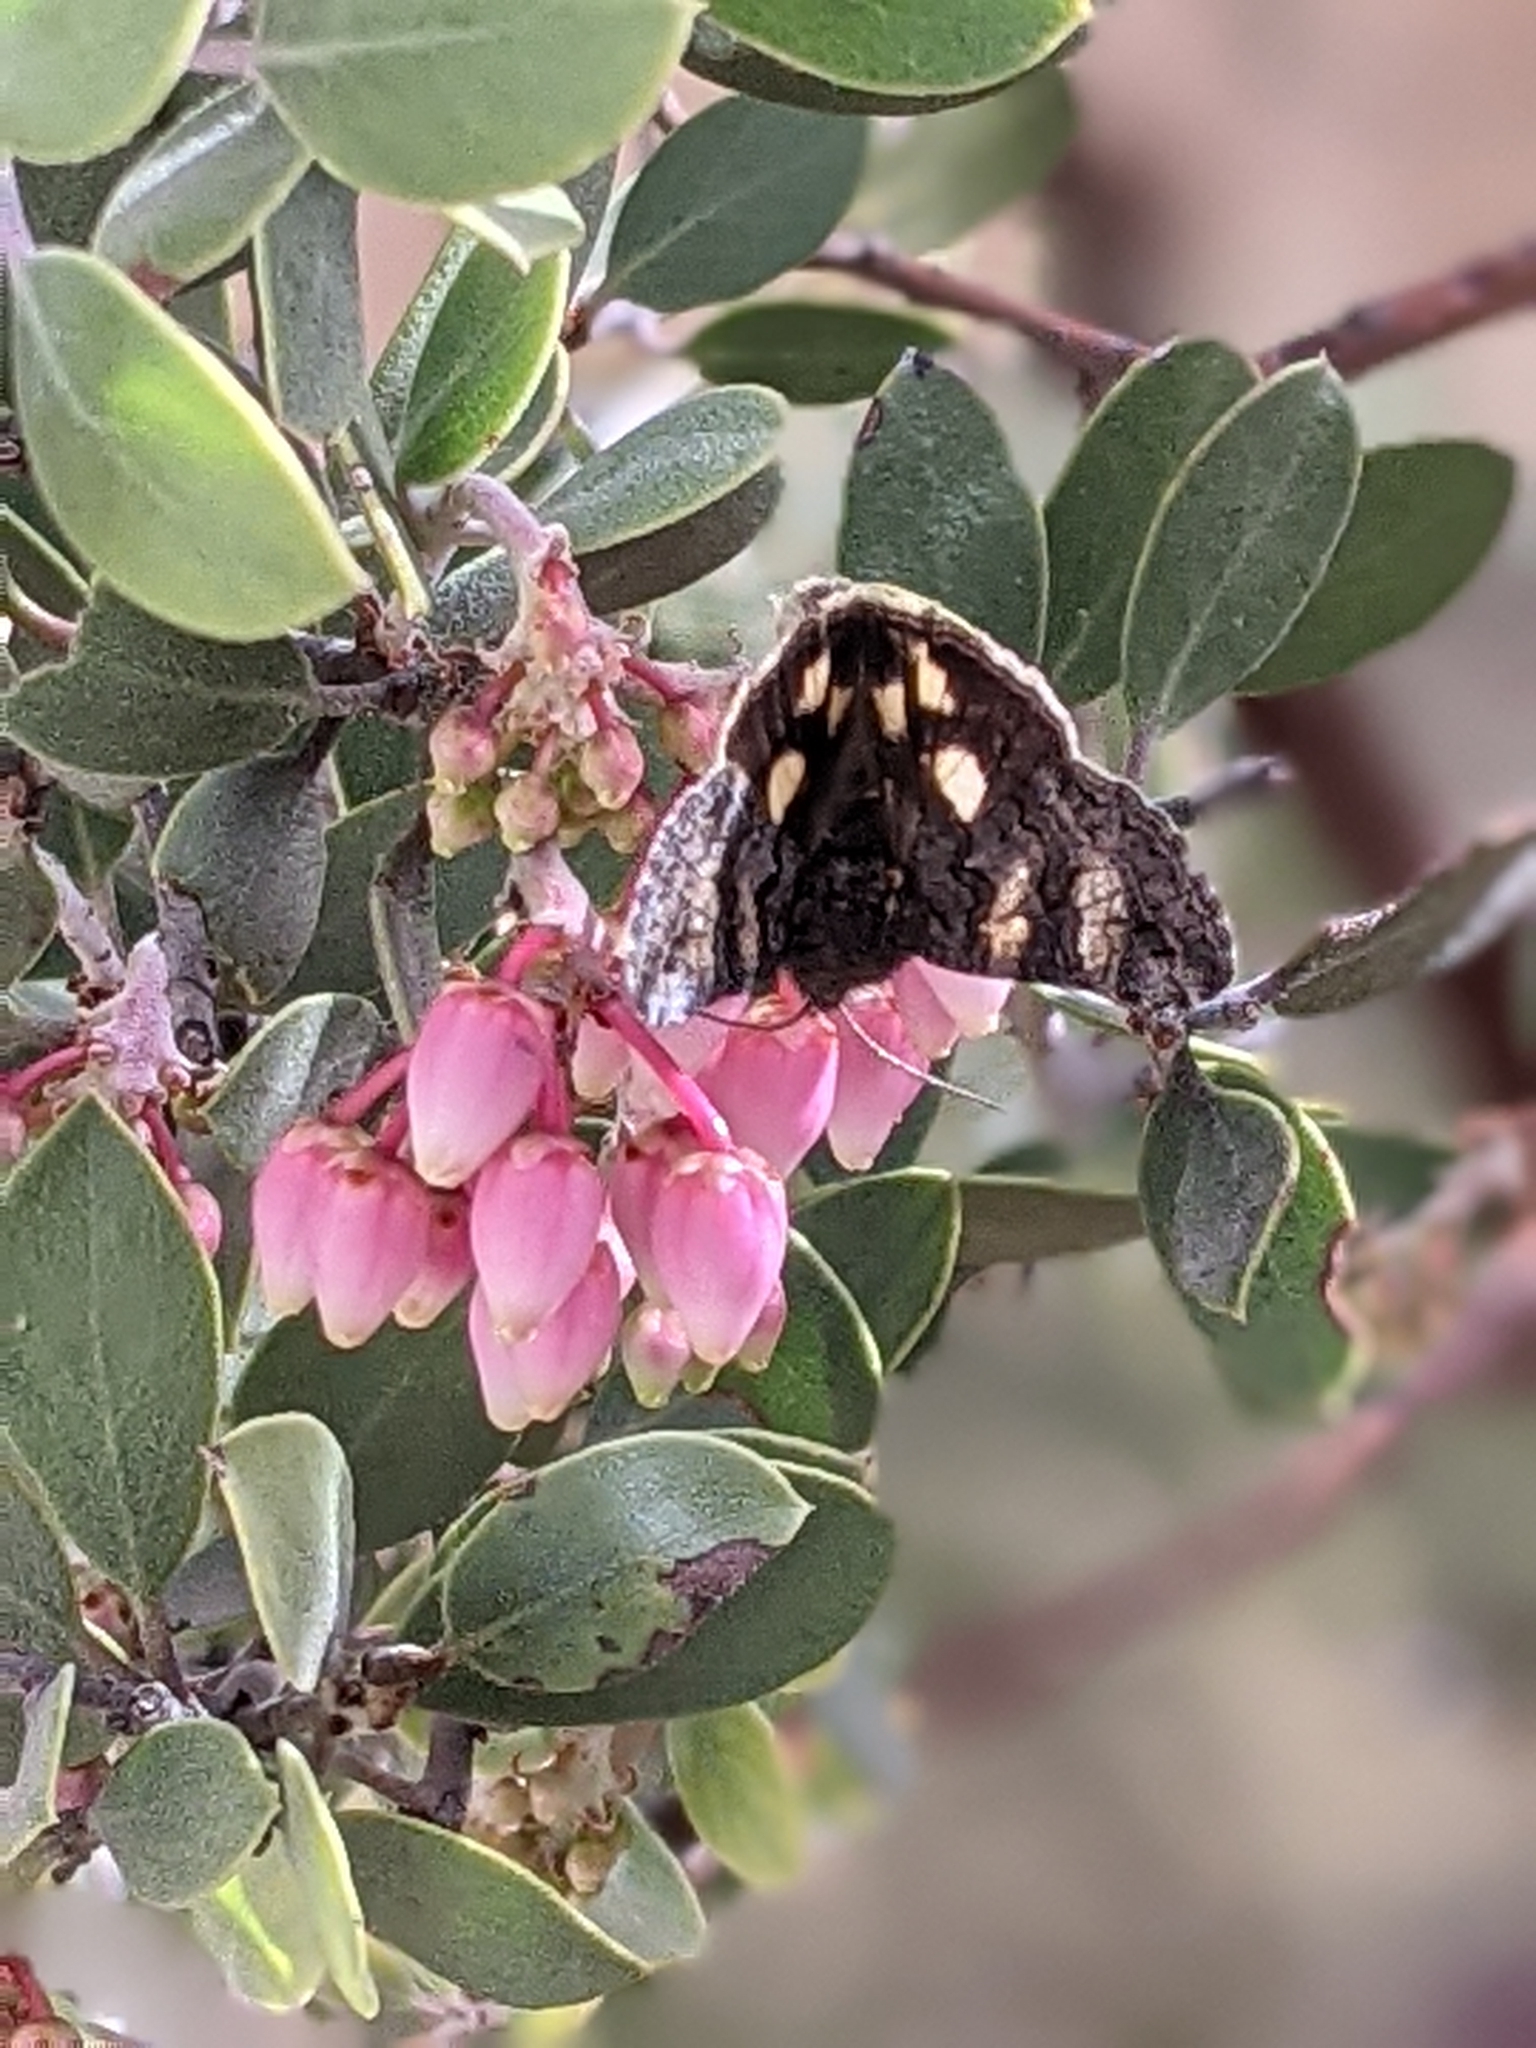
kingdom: Animalia
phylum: Arthropoda
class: Insecta
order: Lepidoptera
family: Erebidae
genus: Litocala
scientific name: Litocala sexsignata
